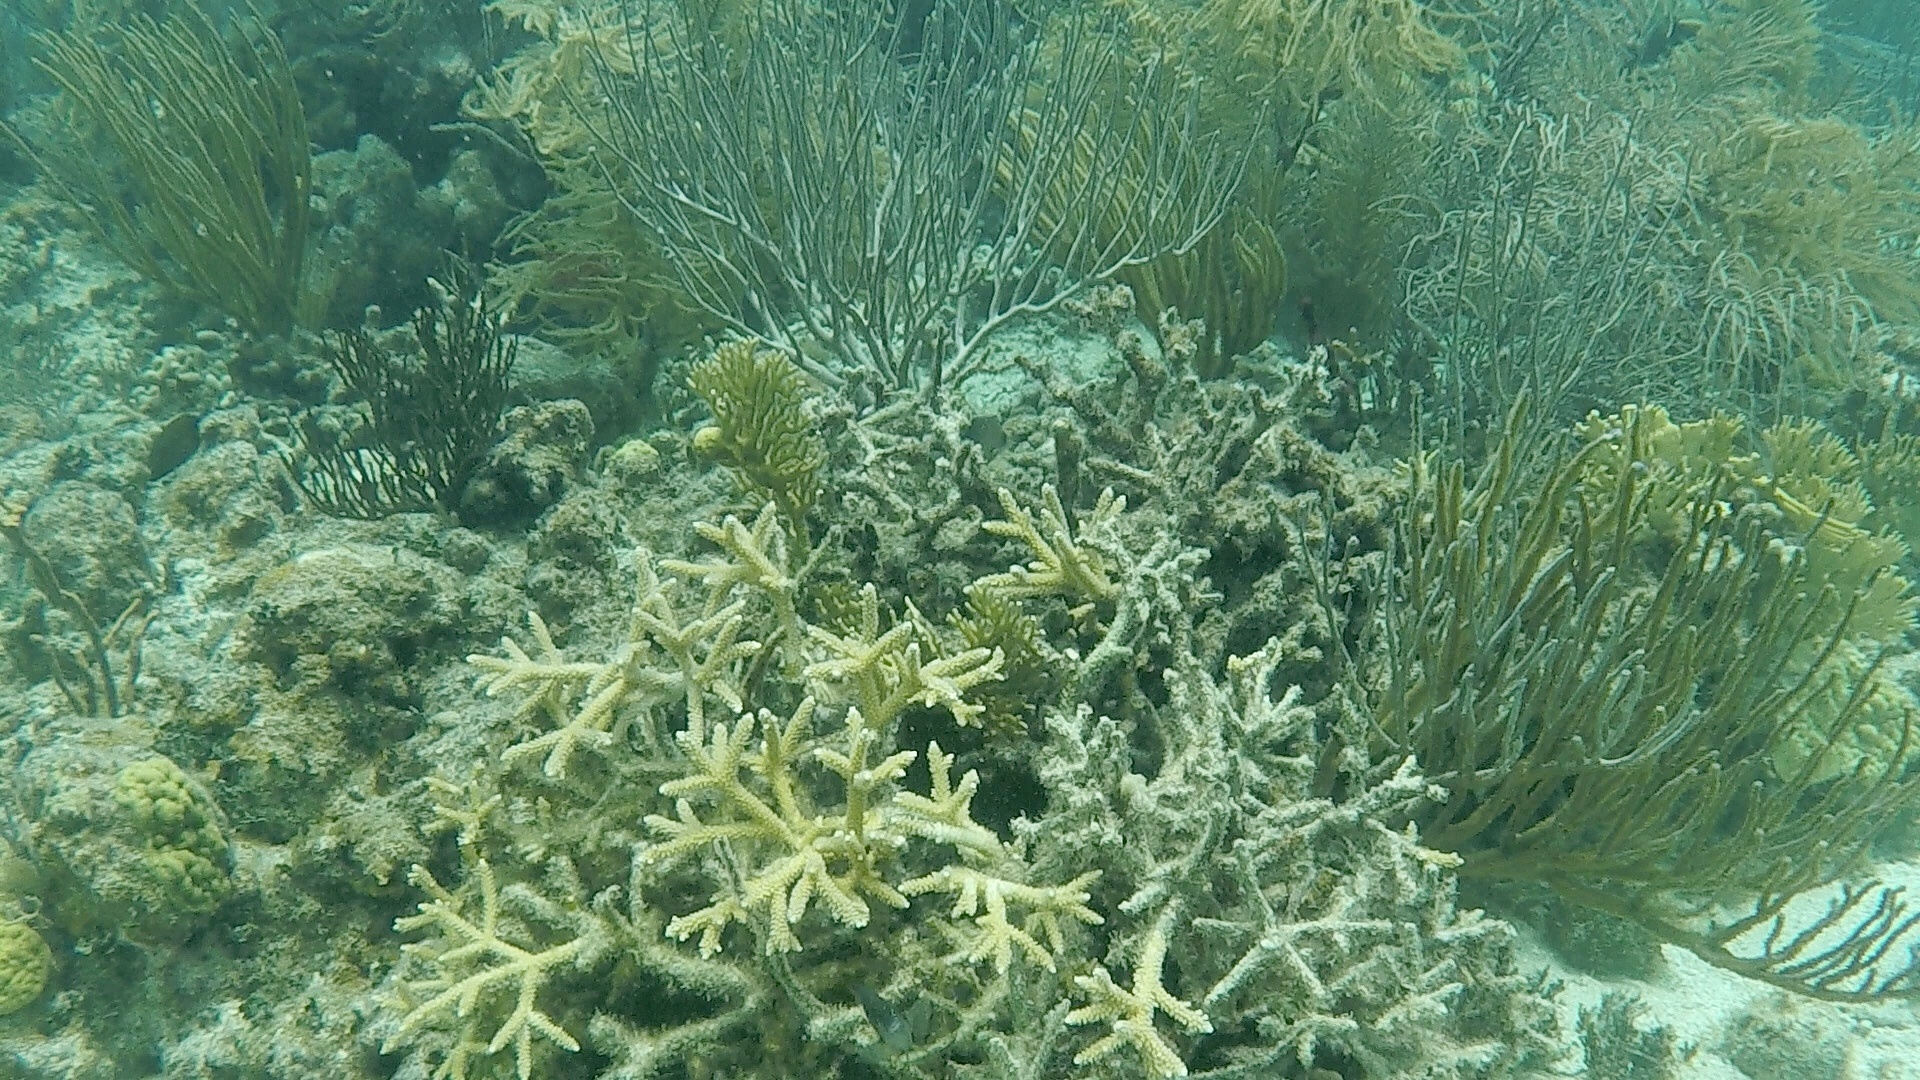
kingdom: Animalia
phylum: Cnidaria
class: Anthozoa
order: Scleractinia
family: Acroporidae
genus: Acropora
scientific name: Acropora cervicornis
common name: Staghorn coral
